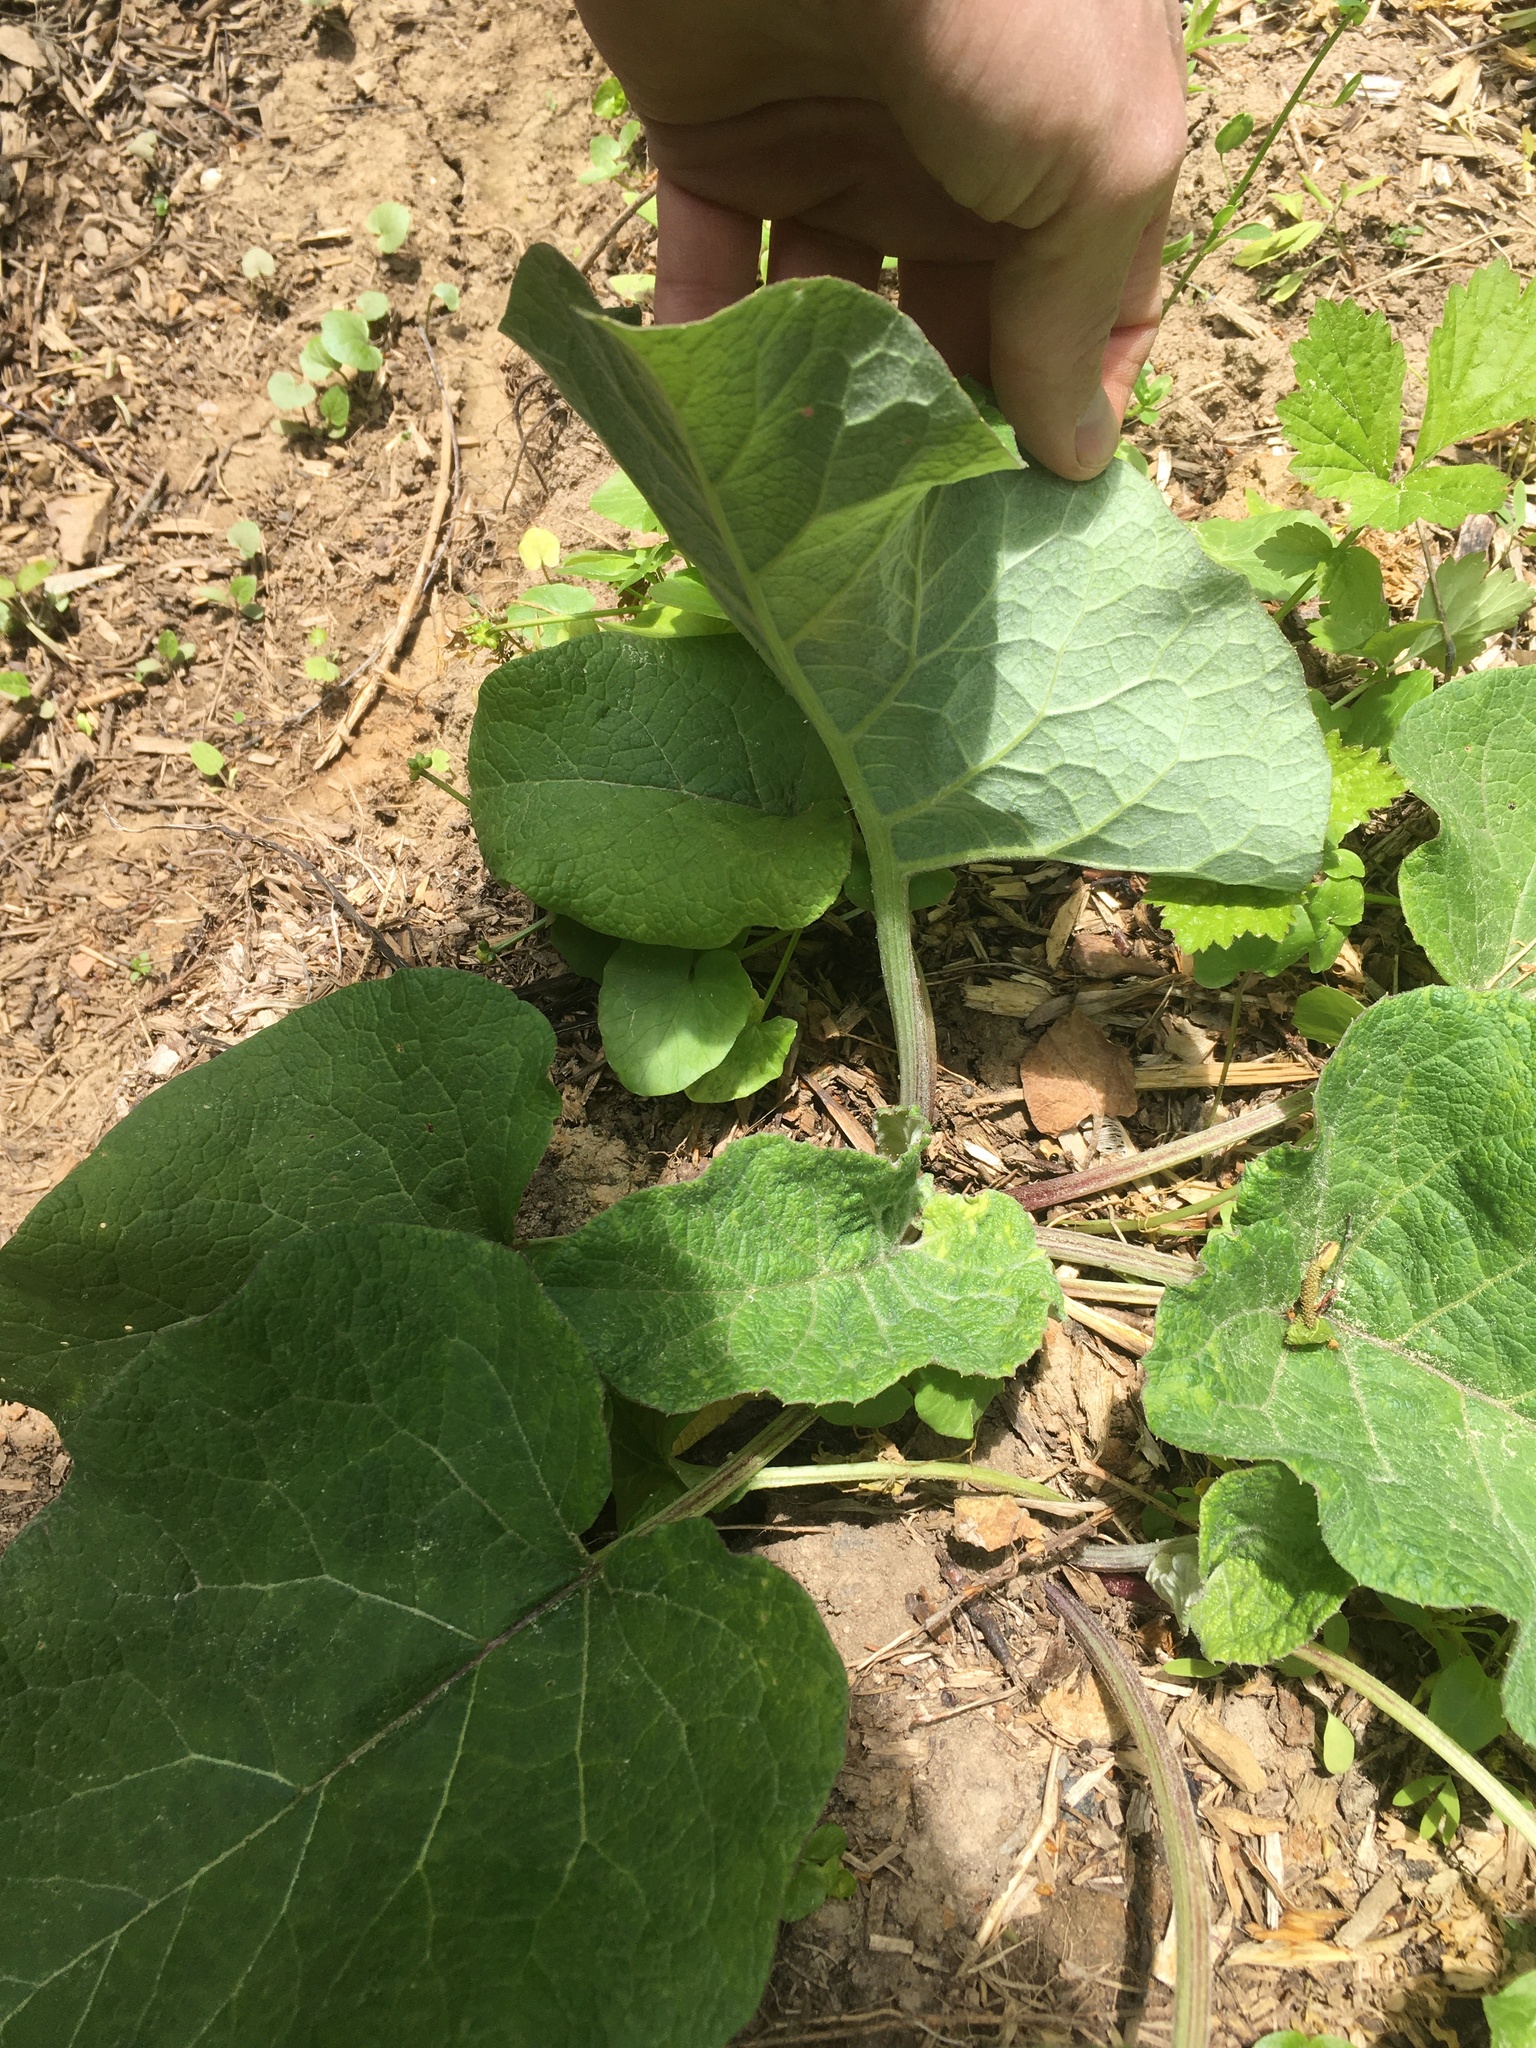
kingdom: Plantae
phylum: Tracheophyta
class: Magnoliopsida
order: Asterales
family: Asteraceae
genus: Arctium
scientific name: Arctium
